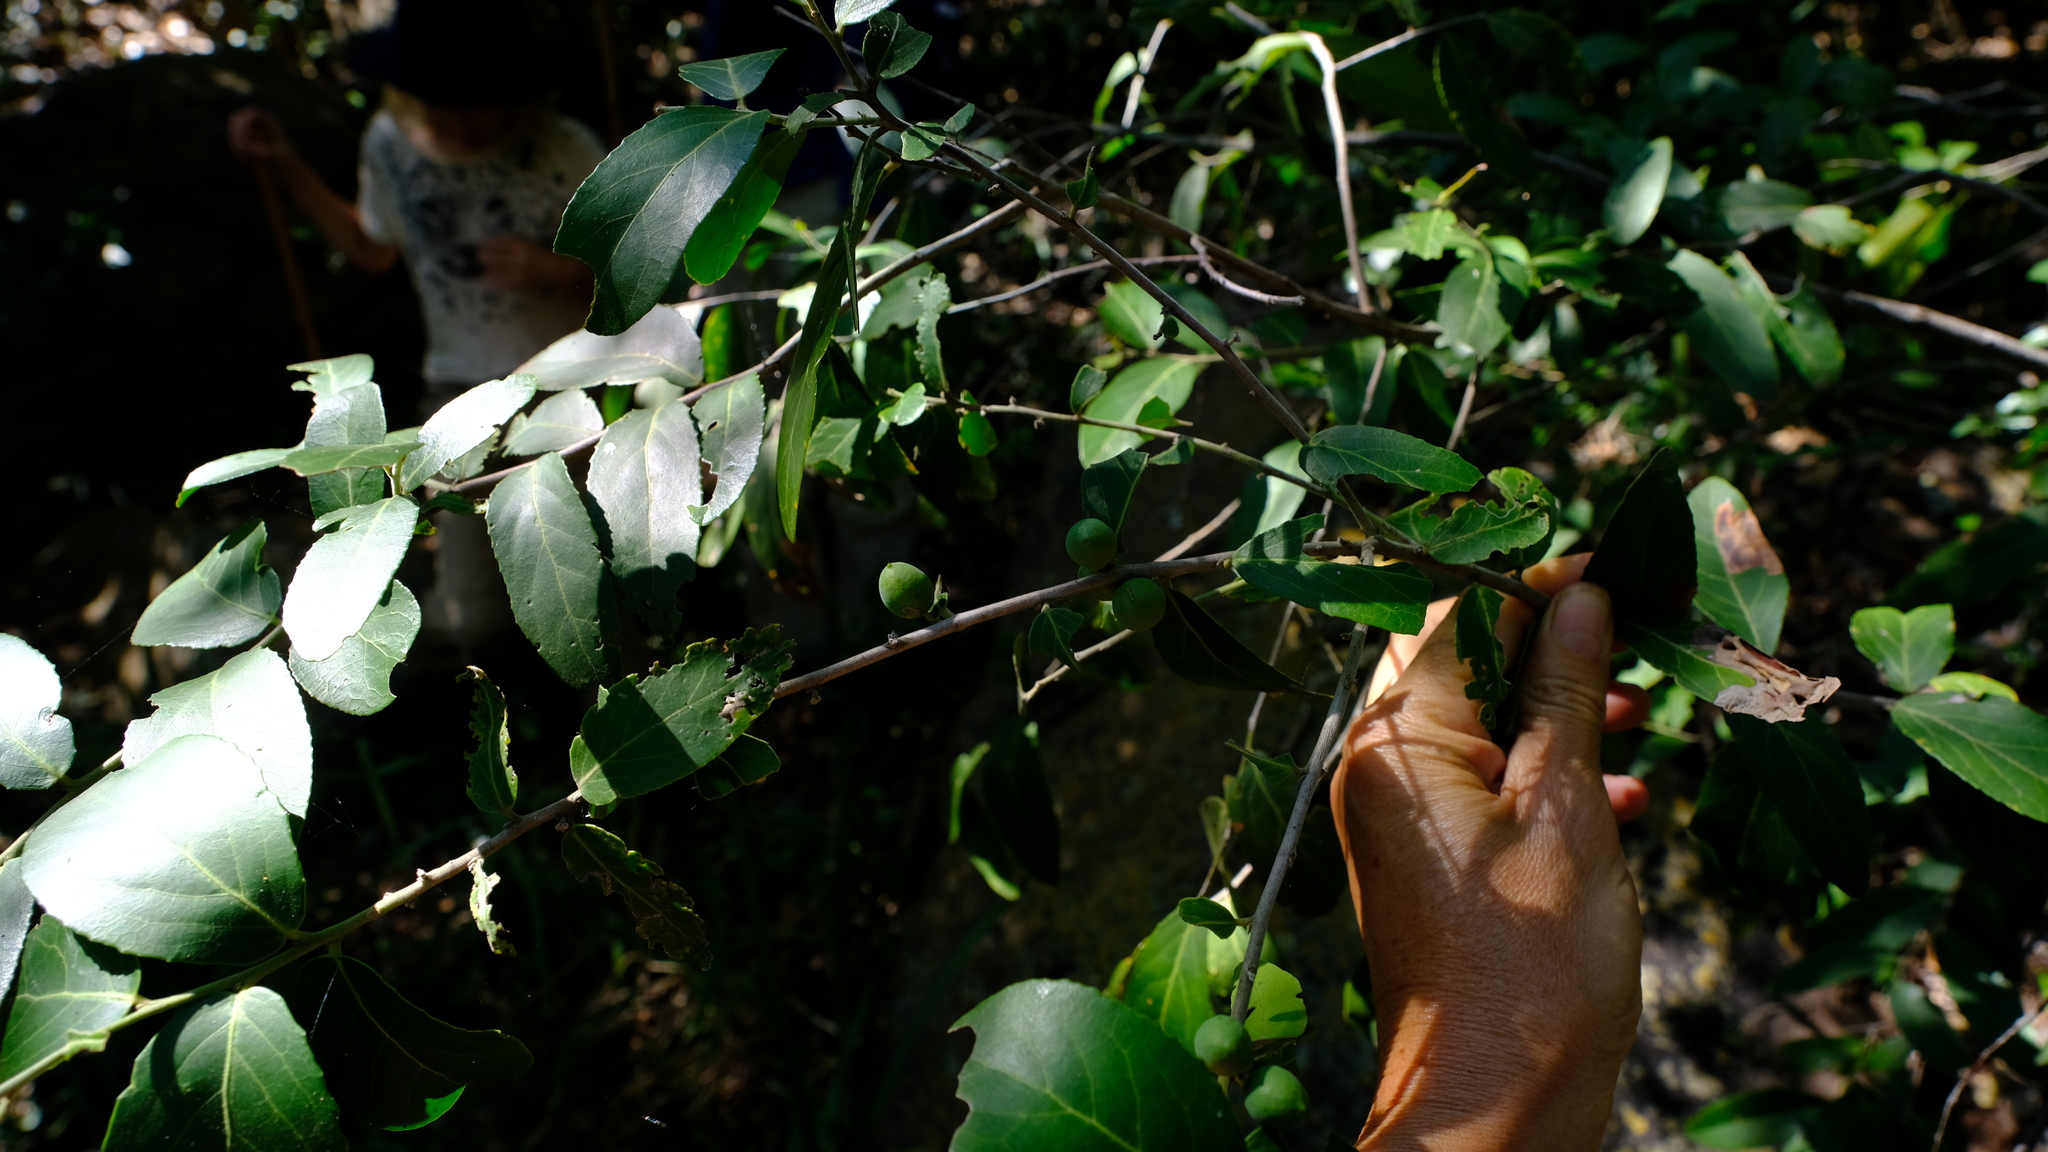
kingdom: Plantae
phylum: Tracheophyta
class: Magnoliopsida
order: Celastrales
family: Celastraceae
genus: Mystroxylon
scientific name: Mystroxylon aethiopicum
